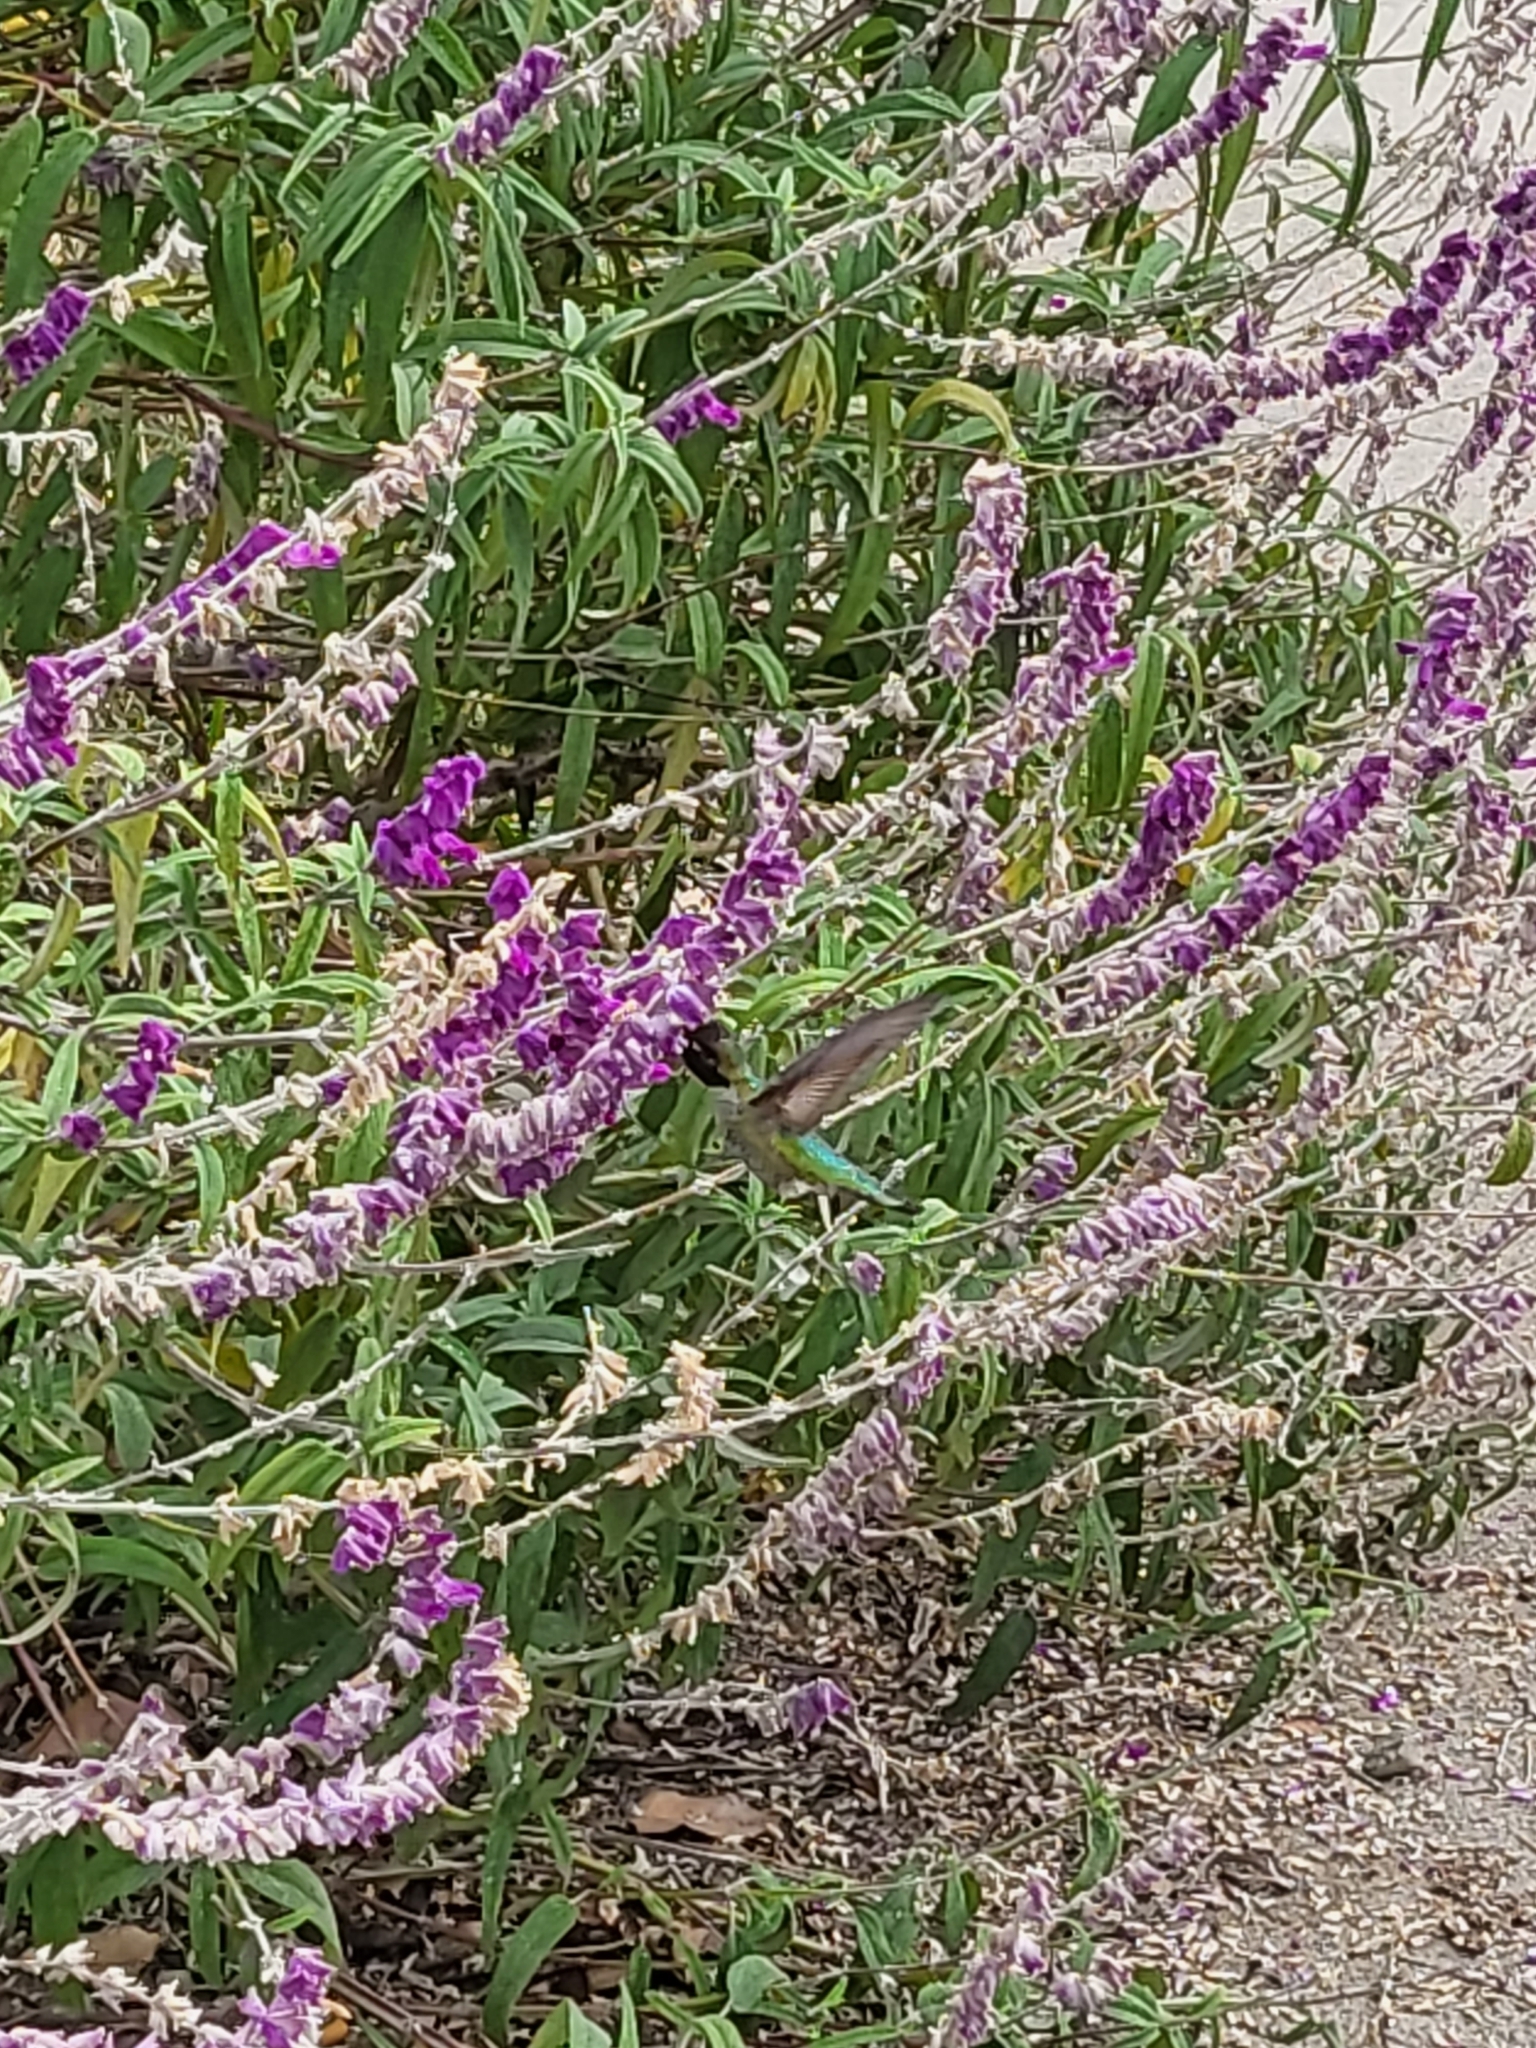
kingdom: Animalia
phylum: Chordata
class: Aves
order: Apodiformes
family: Trochilidae
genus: Calypte
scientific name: Calypte anna
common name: Anna's hummingbird
